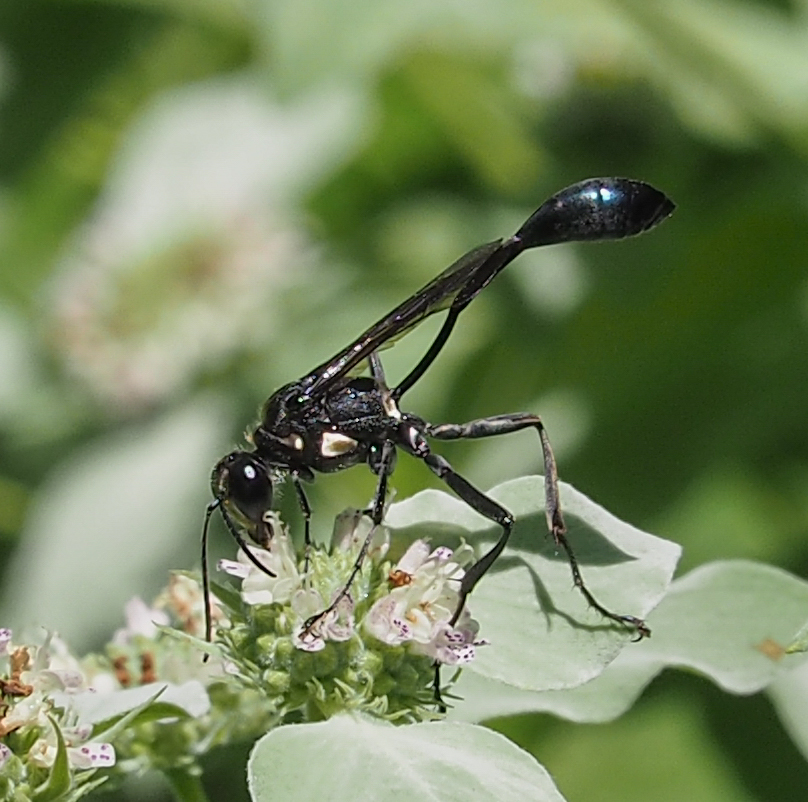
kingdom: Animalia
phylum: Arthropoda
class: Insecta
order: Hymenoptera
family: Vespidae
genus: Eumenes
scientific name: Eumenes fraternus
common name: Fraternal potter wasp
